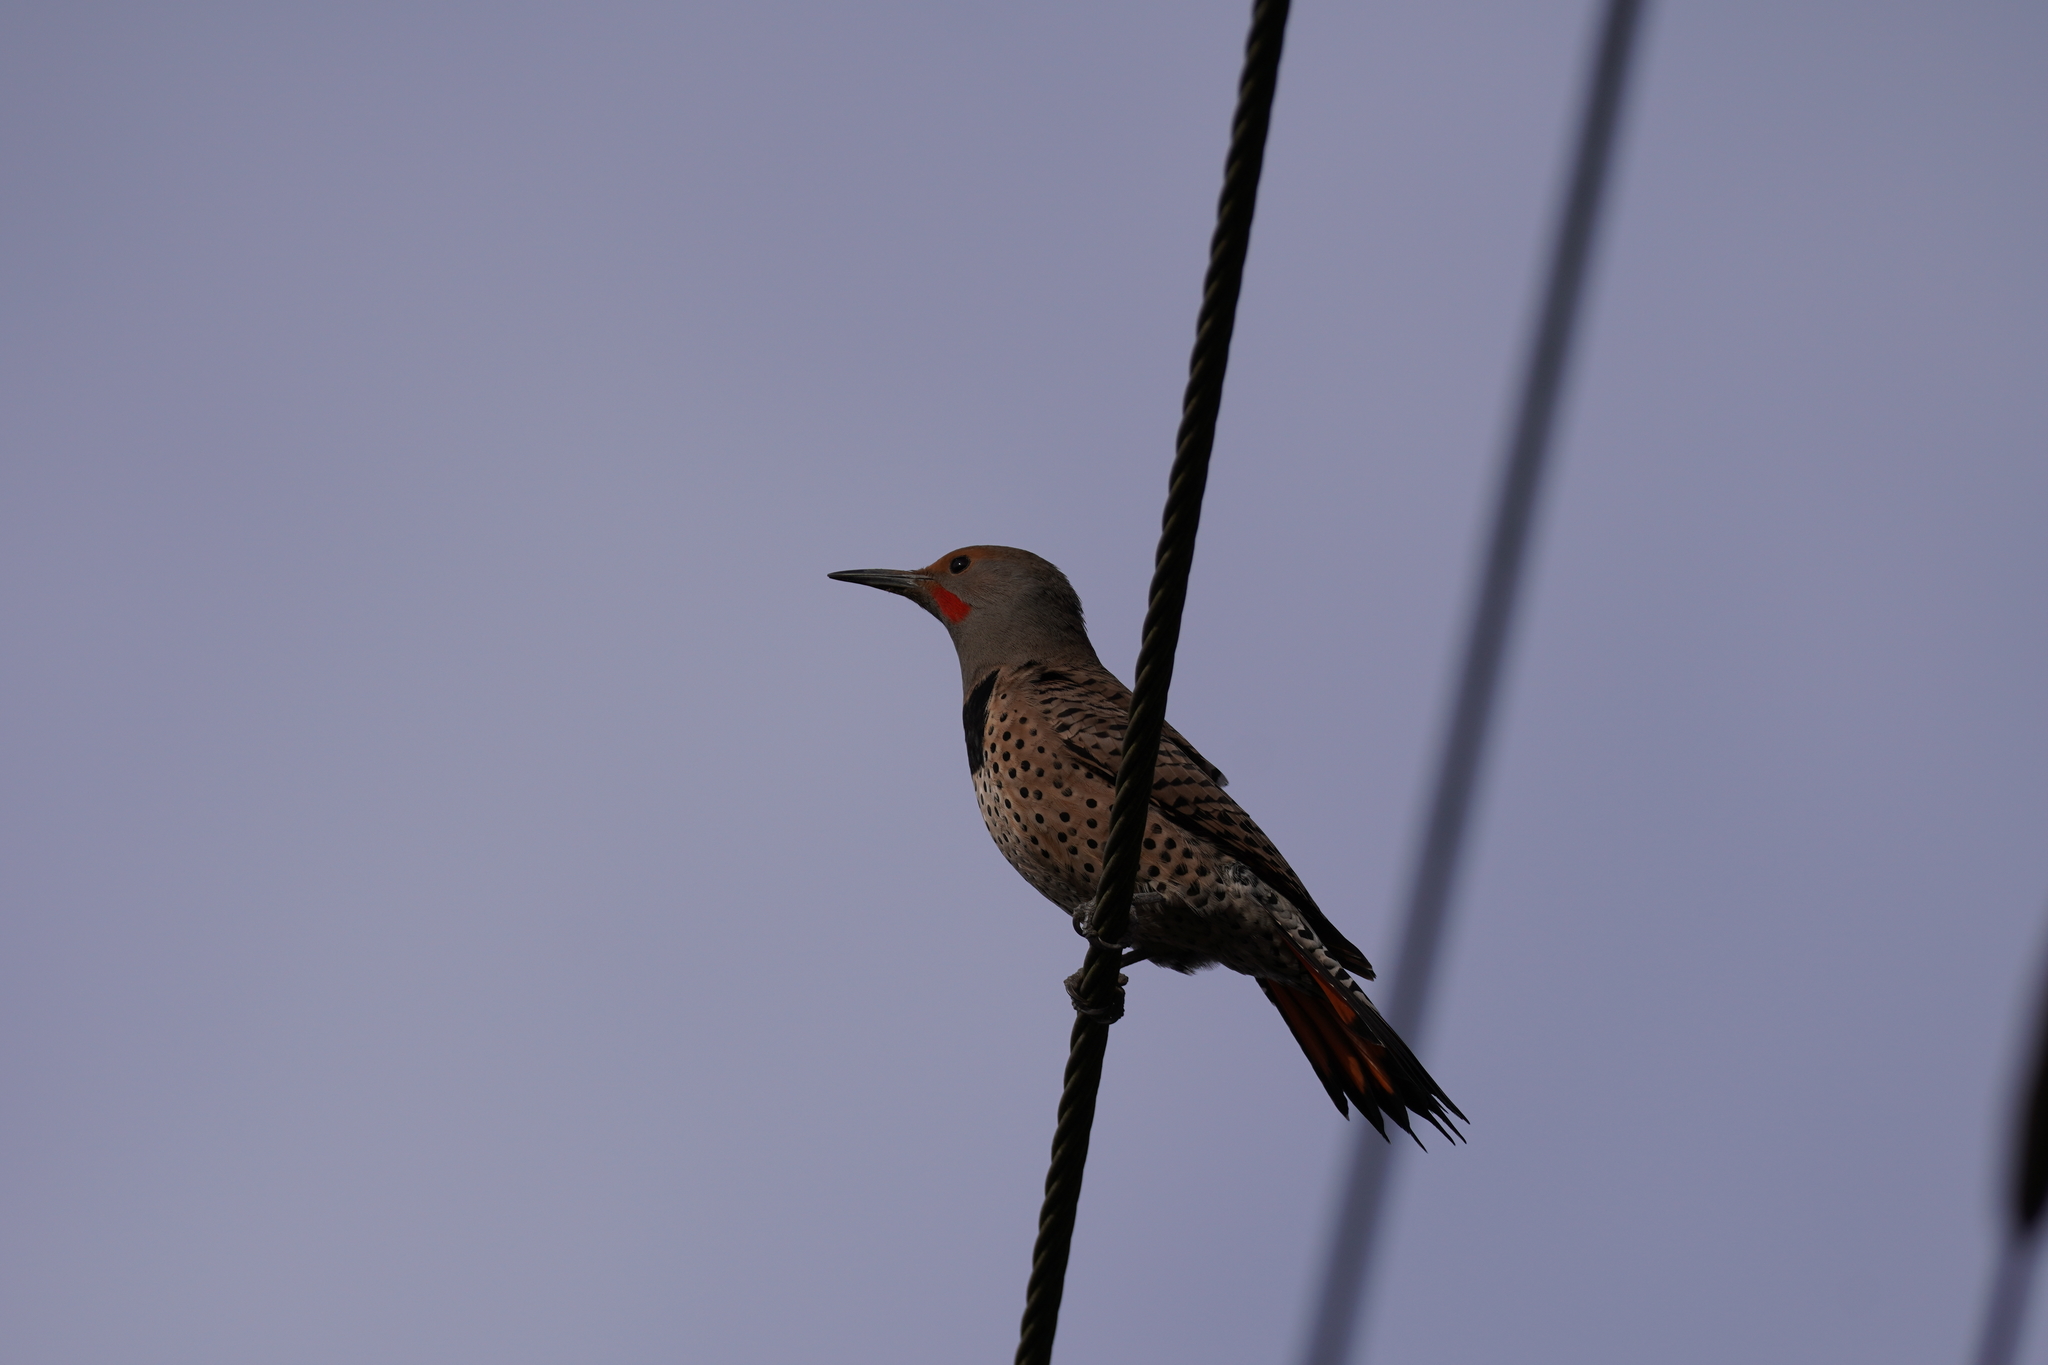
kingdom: Animalia
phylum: Chordata
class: Aves
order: Piciformes
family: Picidae
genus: Colaptes
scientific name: Colaptes auratus
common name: Northern flicker
